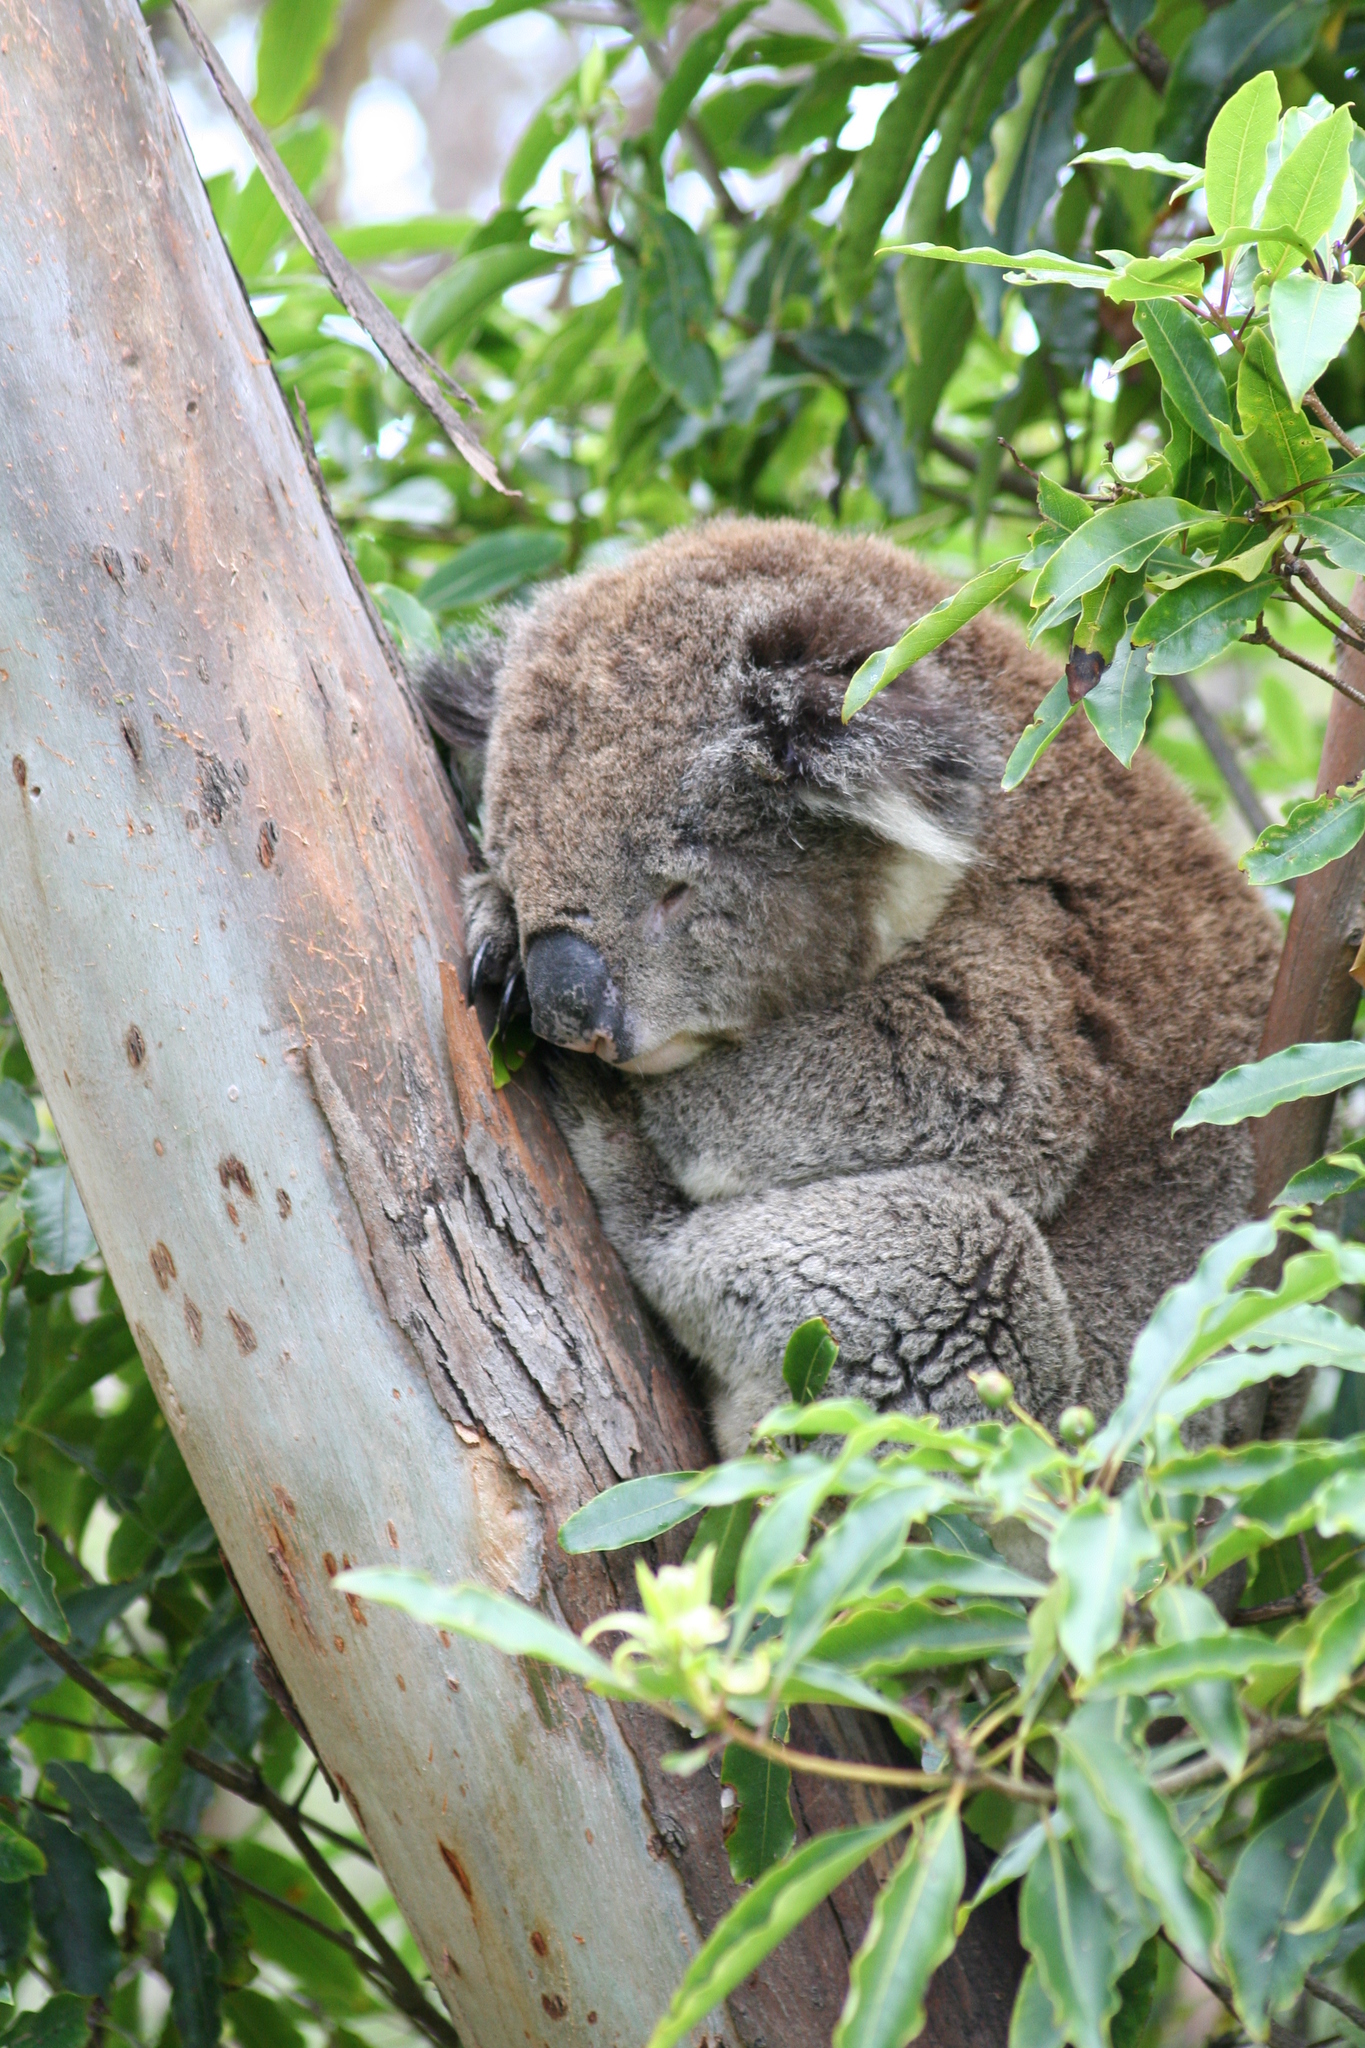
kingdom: Animalia
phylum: Chordata
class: Mammalia
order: Diprotodontia
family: Phascolarctidae
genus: Phascolarctos
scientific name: Phascolarctos cinereus
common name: Koala
